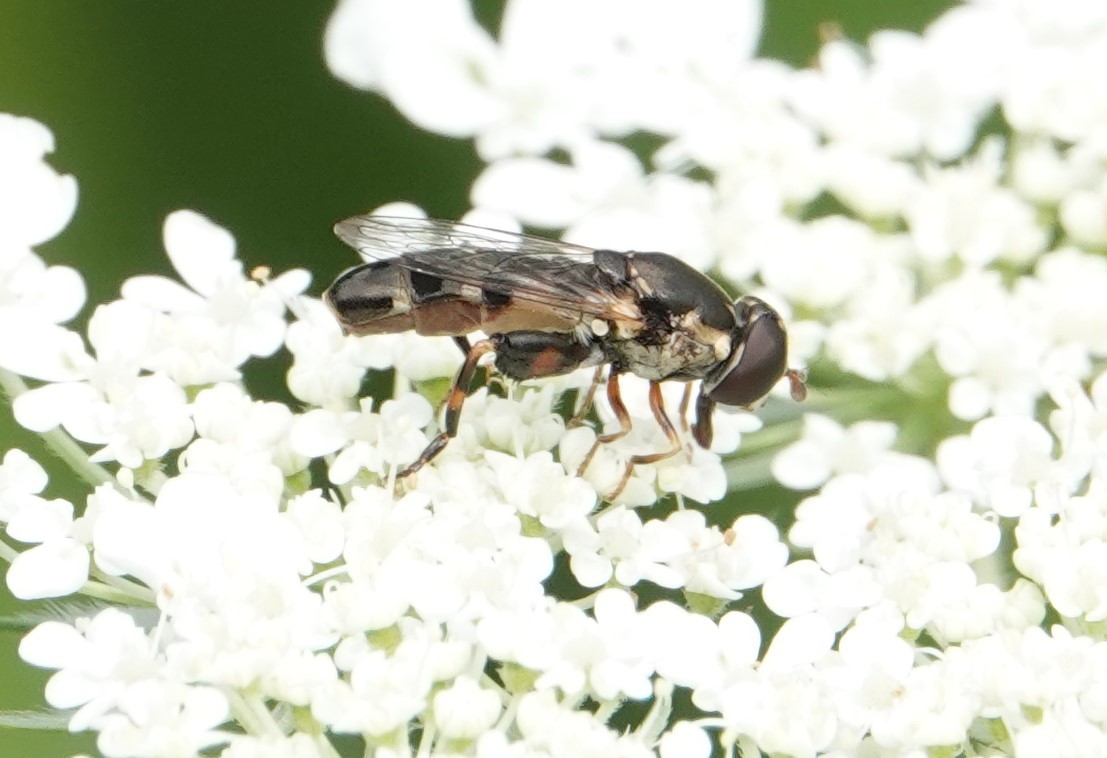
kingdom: Animalia
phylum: Arthropoda
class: Insecta
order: Diptera
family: Syrphidae
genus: Syritta
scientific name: Syritta pipiens
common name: Hover fly
